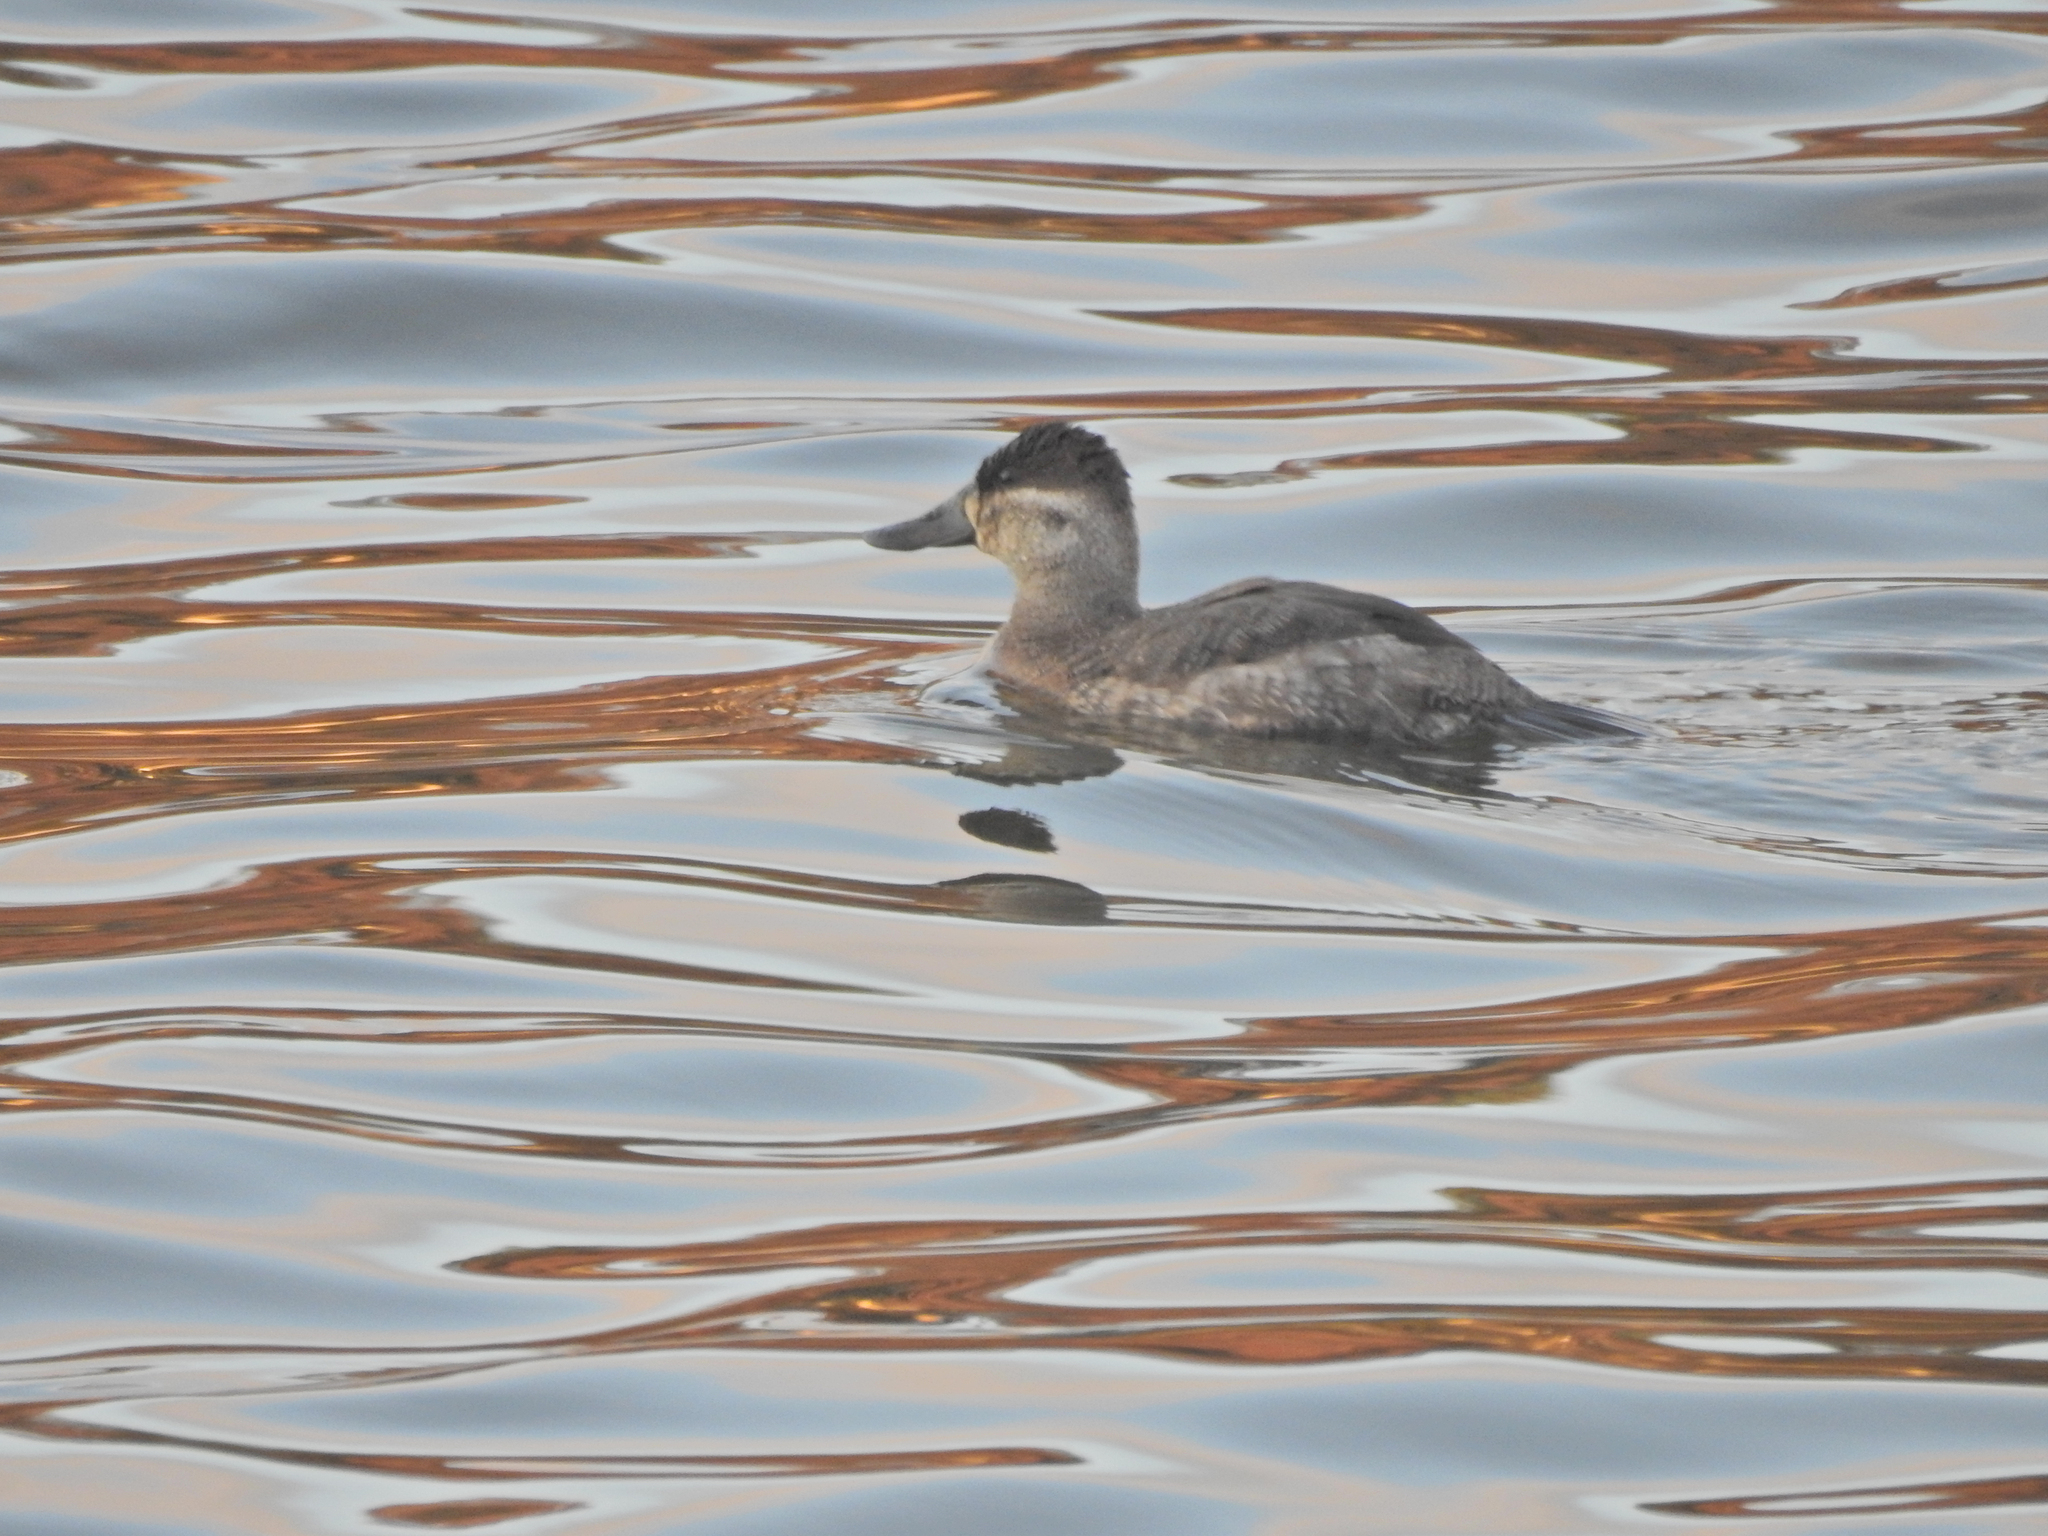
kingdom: Animalia
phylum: Chordata
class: Aves
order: Anseriformes
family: Anatidae
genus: Oxyura
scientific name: Oxyura jamaicensis
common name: Ruddy duck
